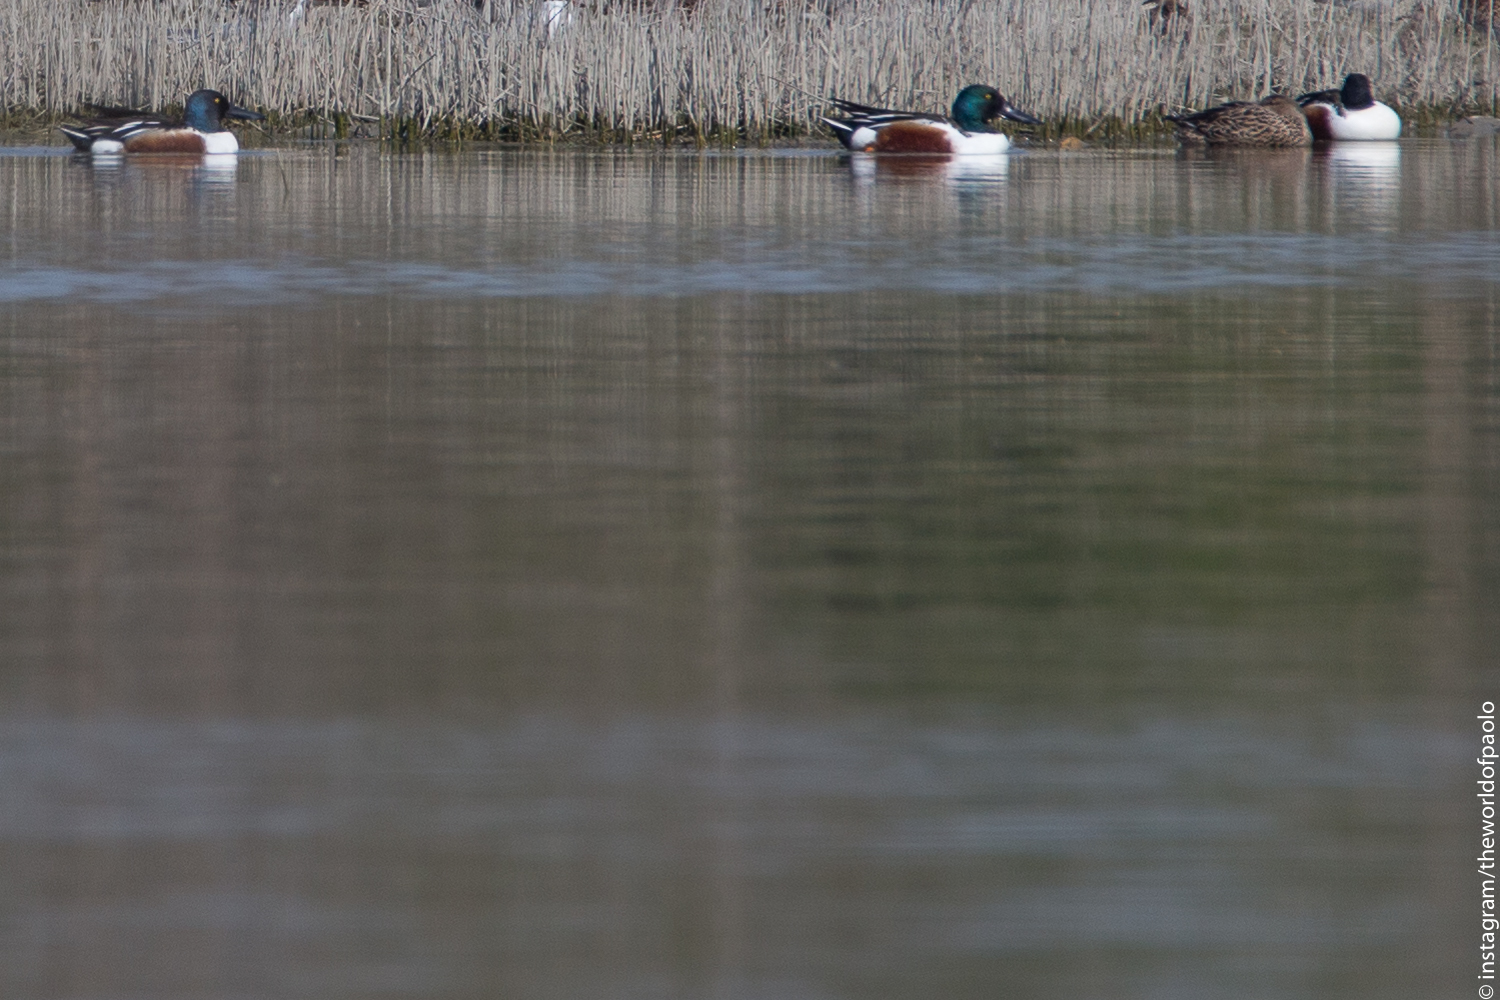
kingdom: Animalia
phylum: Chordata
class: Aves
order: Anseriformes
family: Anatidae
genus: Spatula
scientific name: Spatula clypeata
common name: Northern shoveler
